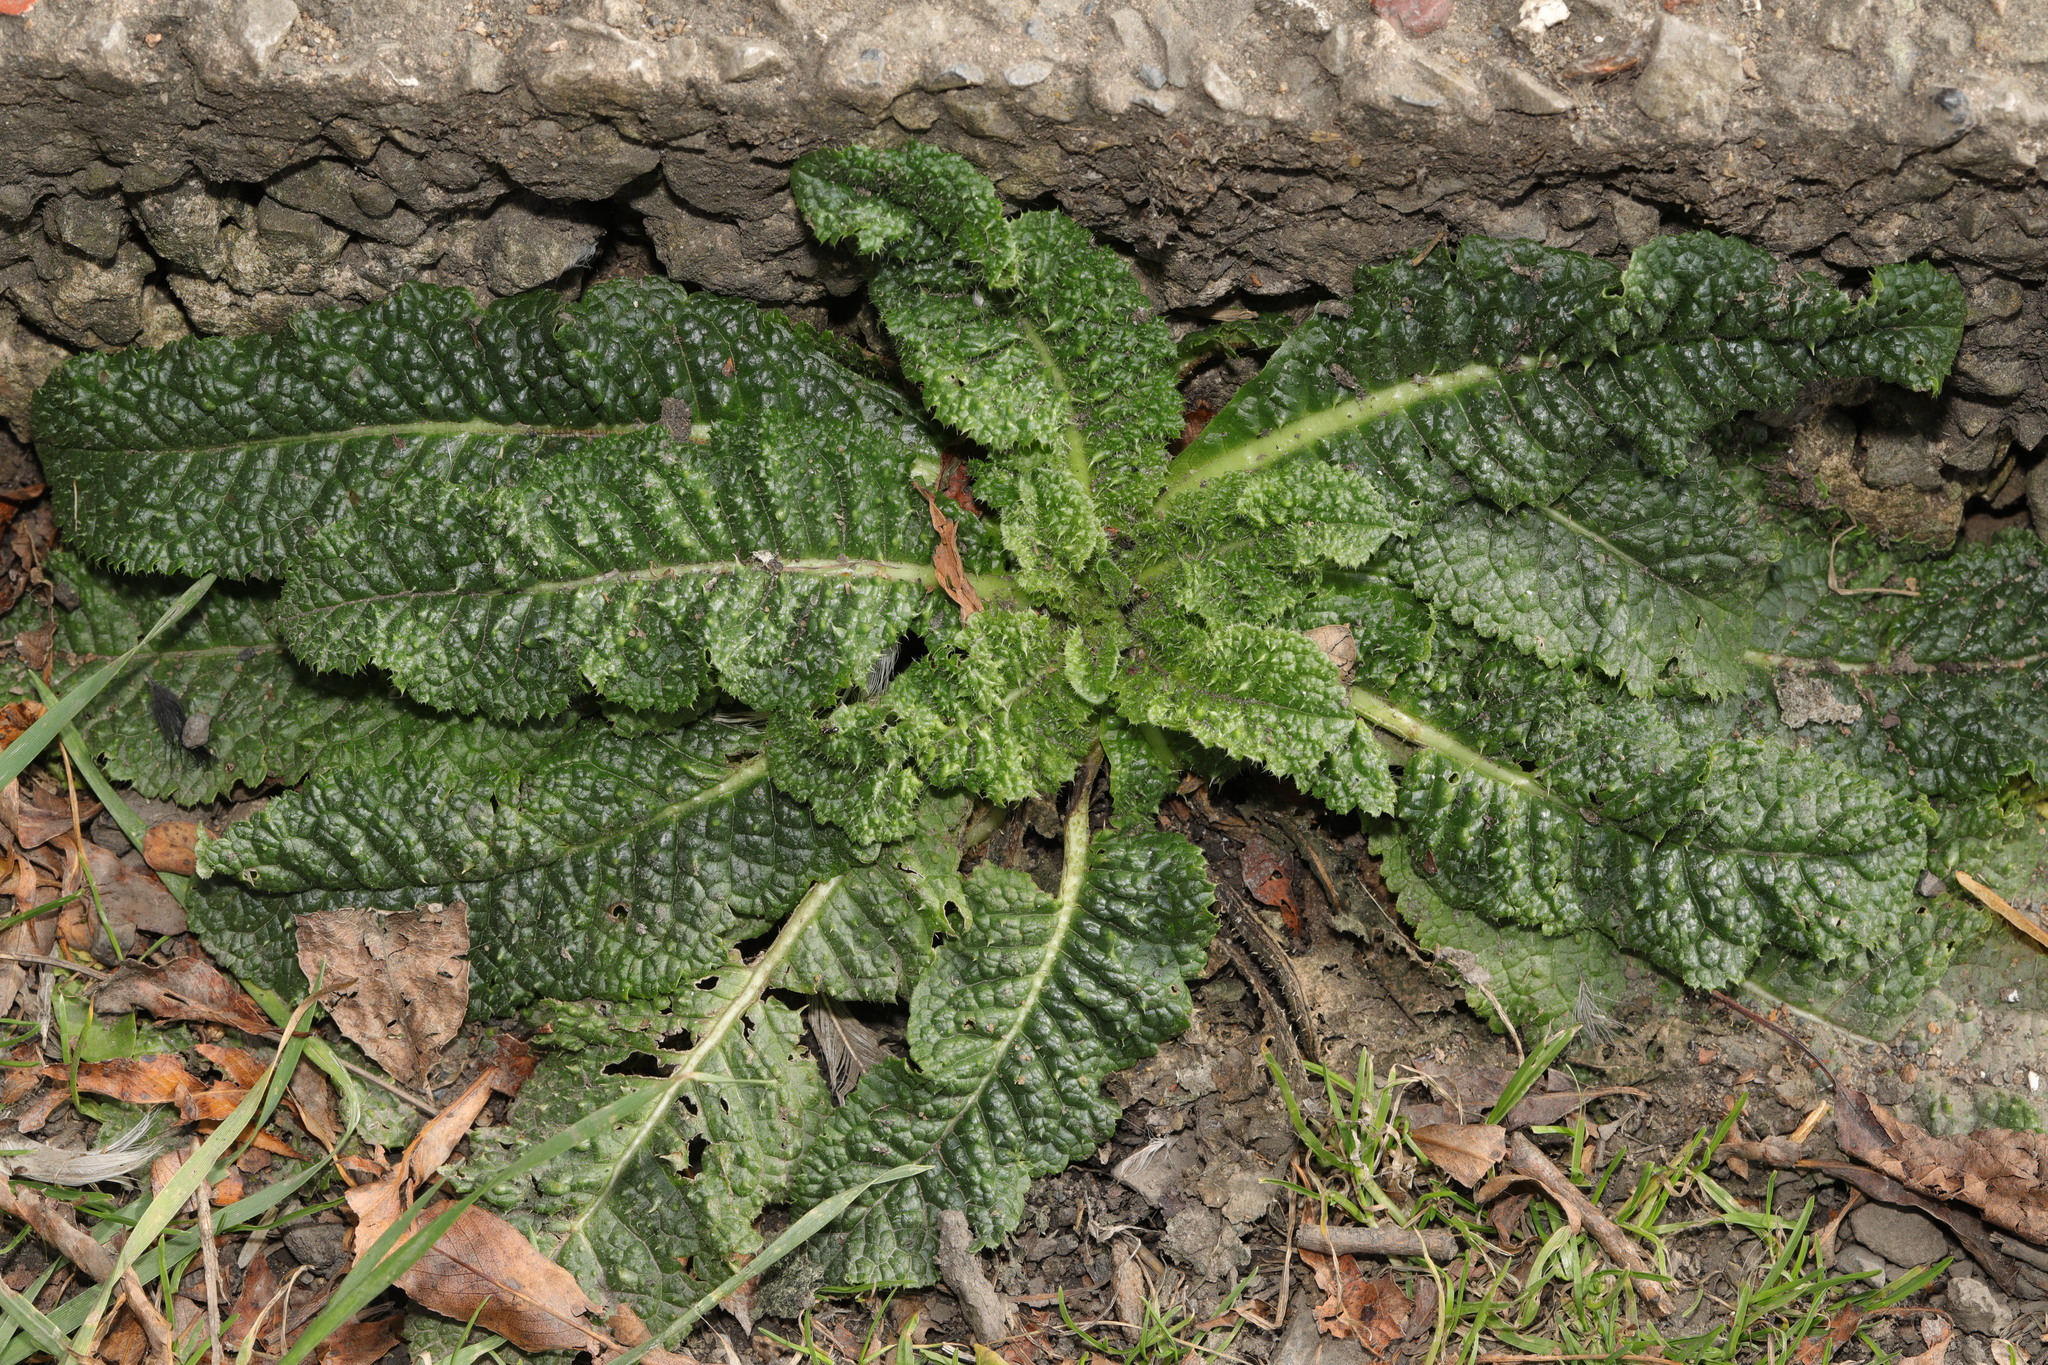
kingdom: Plantae
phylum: Tracheophyta
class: Magnoliopsida
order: Dipsacales
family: Caprifoliaceae
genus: Dipsacus
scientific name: Dipsacus fullonum
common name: Teasel
